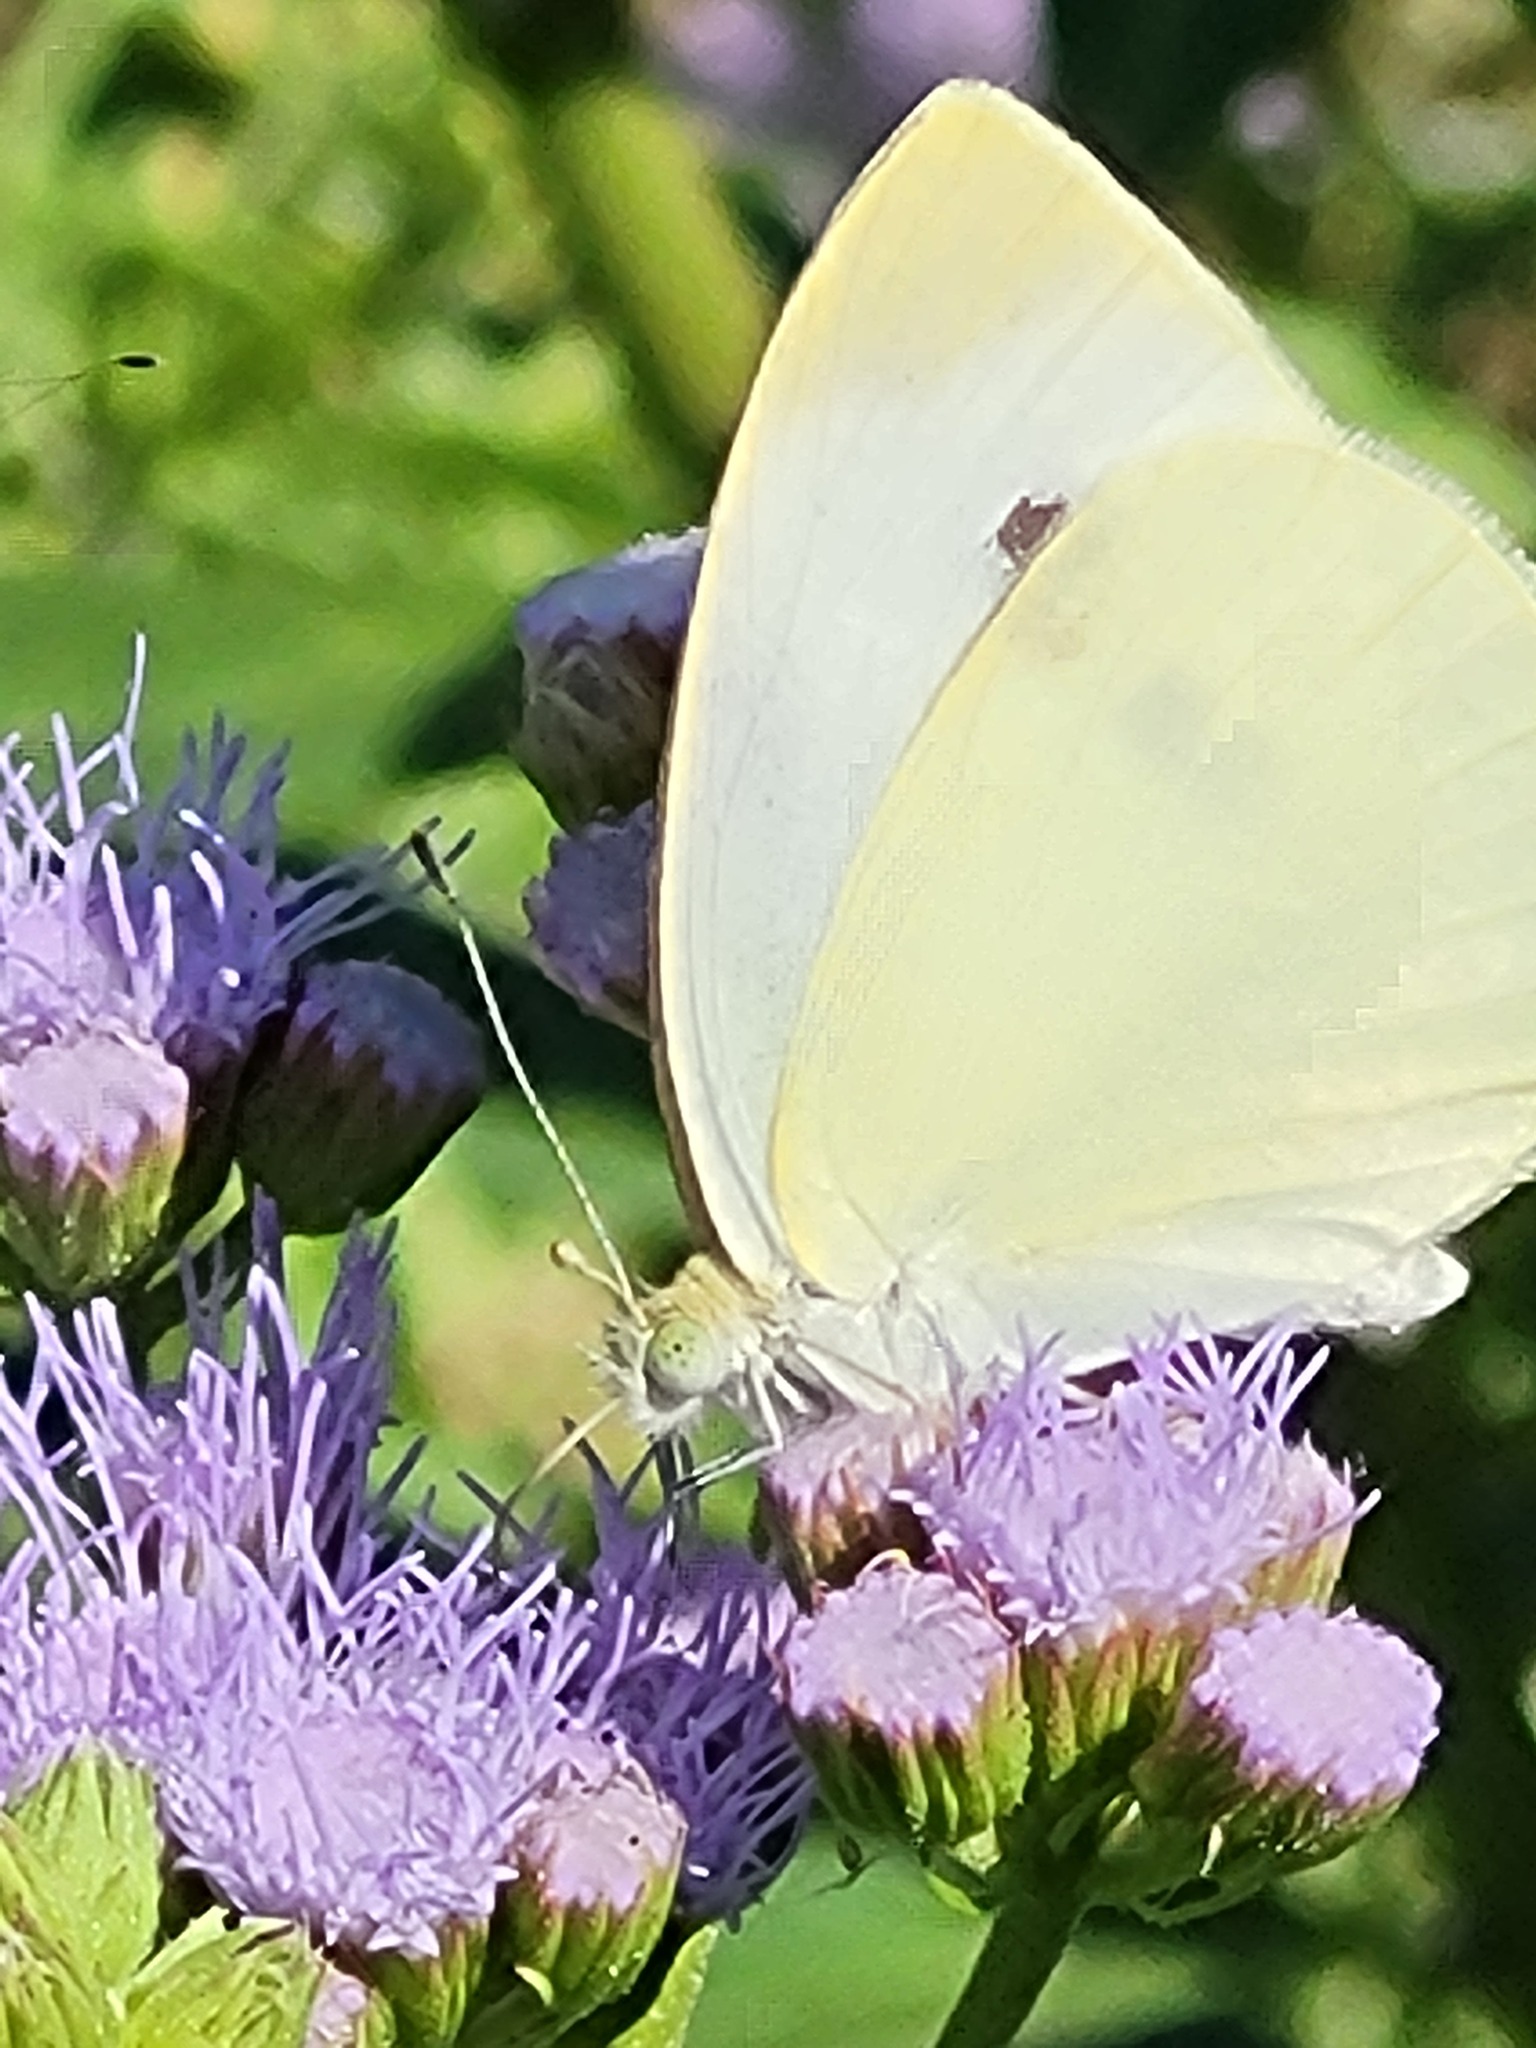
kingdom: Animalia
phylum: Arthropoda
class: Insecta
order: Lepidoptera
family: Pieridae
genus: Pieris
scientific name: Pieris rapae
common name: Small white
